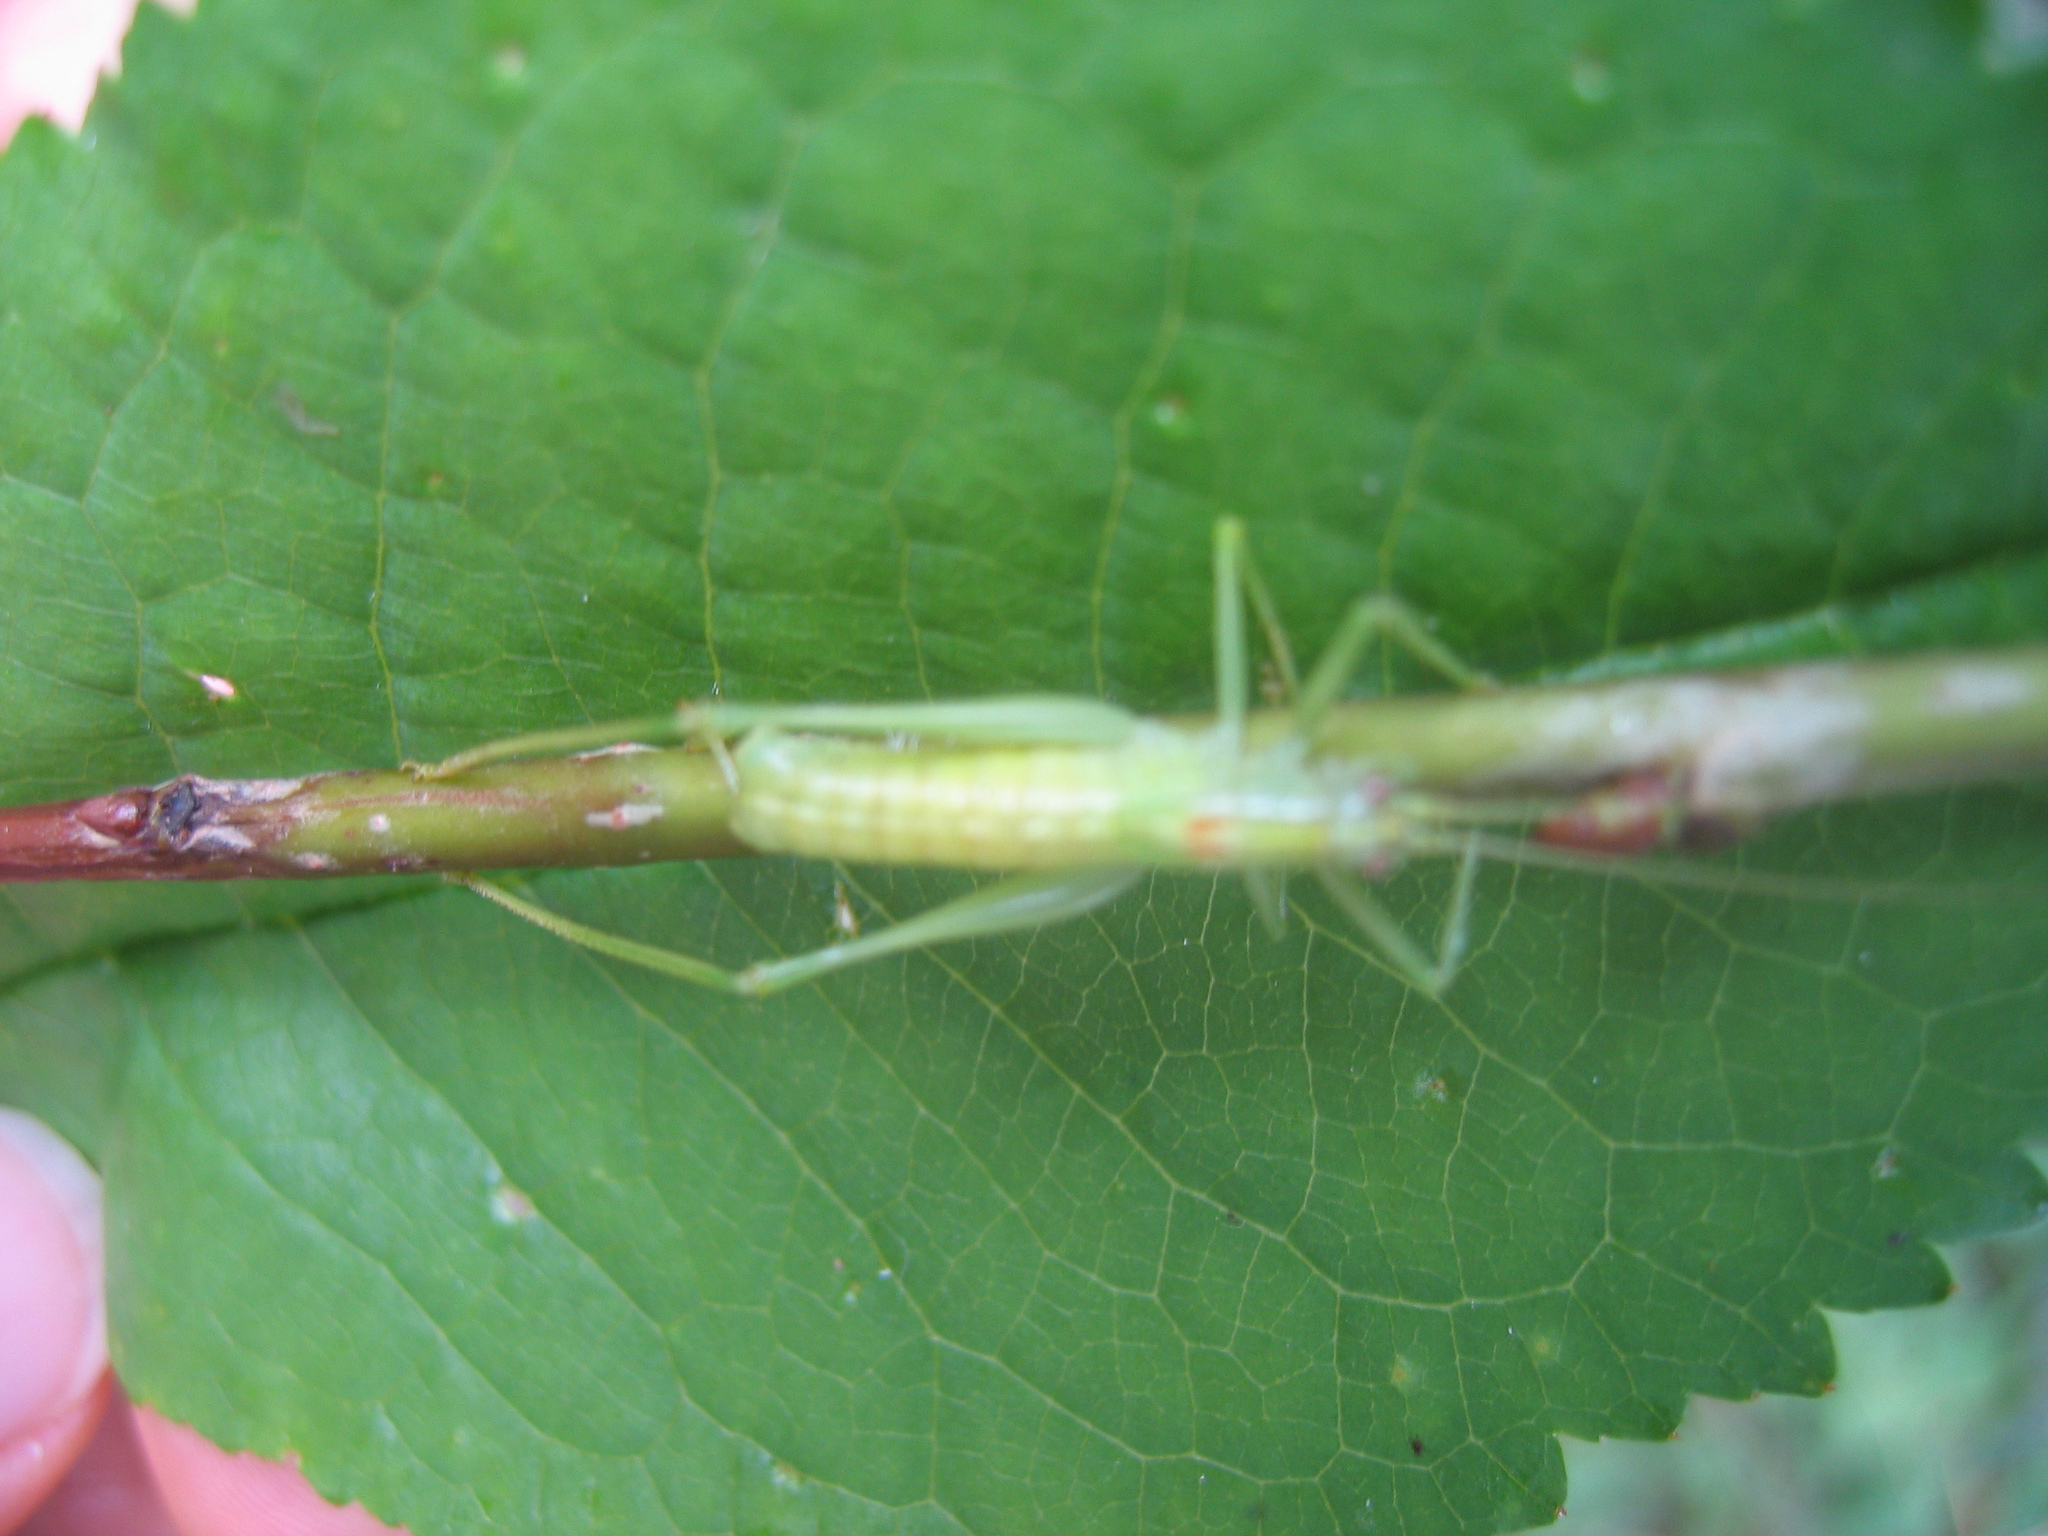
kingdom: Animalia
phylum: Arthropoda
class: Insecta
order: Orthoptera
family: Tettigoniidae
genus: Meconema
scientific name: Meconema meridionale
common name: Southern oak bush-cricket
